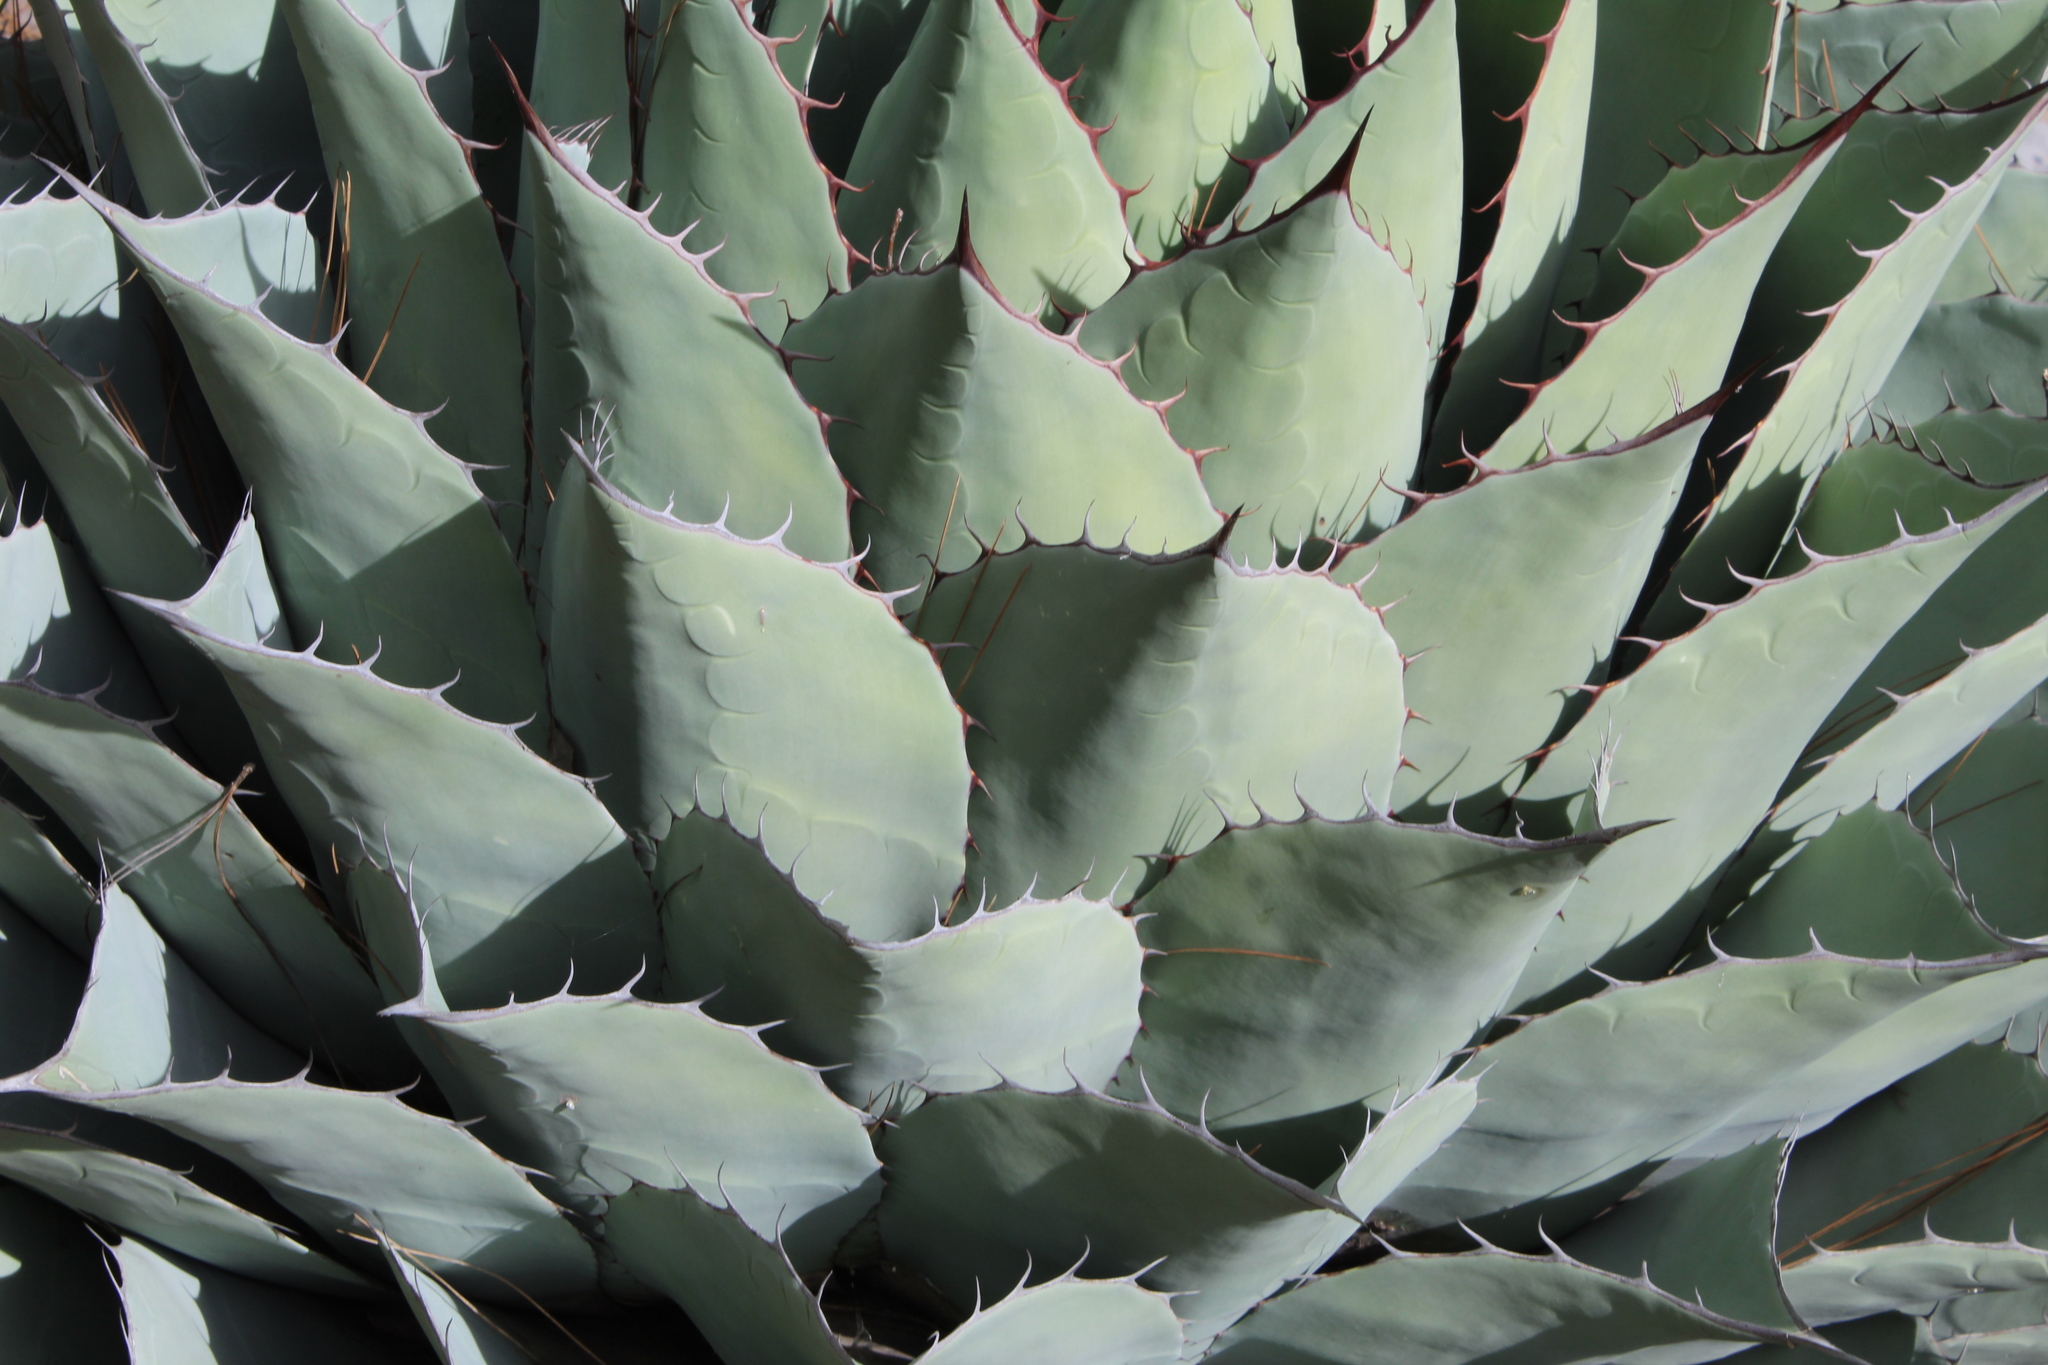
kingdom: Plantae
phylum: Tracheophyta
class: Liliopsida
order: Asparagales
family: Asparagaceae
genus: Agave
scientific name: Agave gentryi
